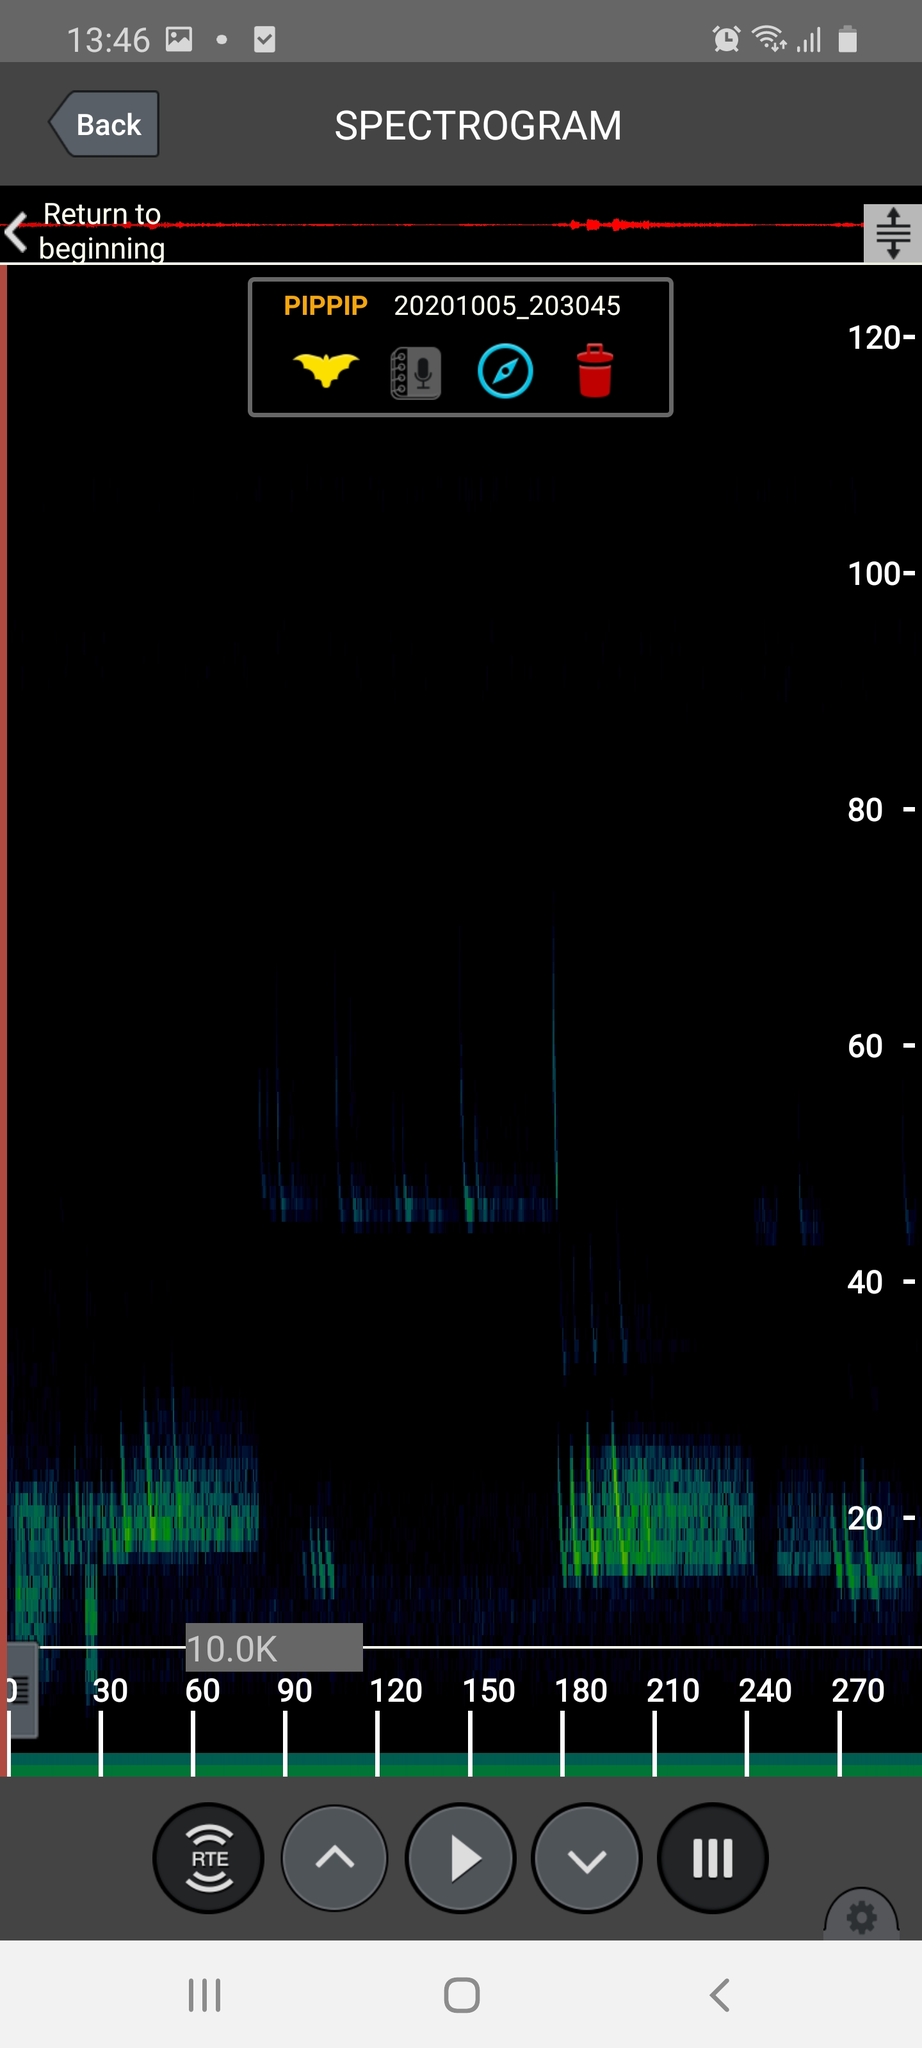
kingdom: Animalia
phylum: Chordata
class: Mammalia
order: Chiroptera
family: Vespertilionidae
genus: Pipistrellus
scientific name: Pipistrellus pipistrellus
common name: Common pipistrelle
